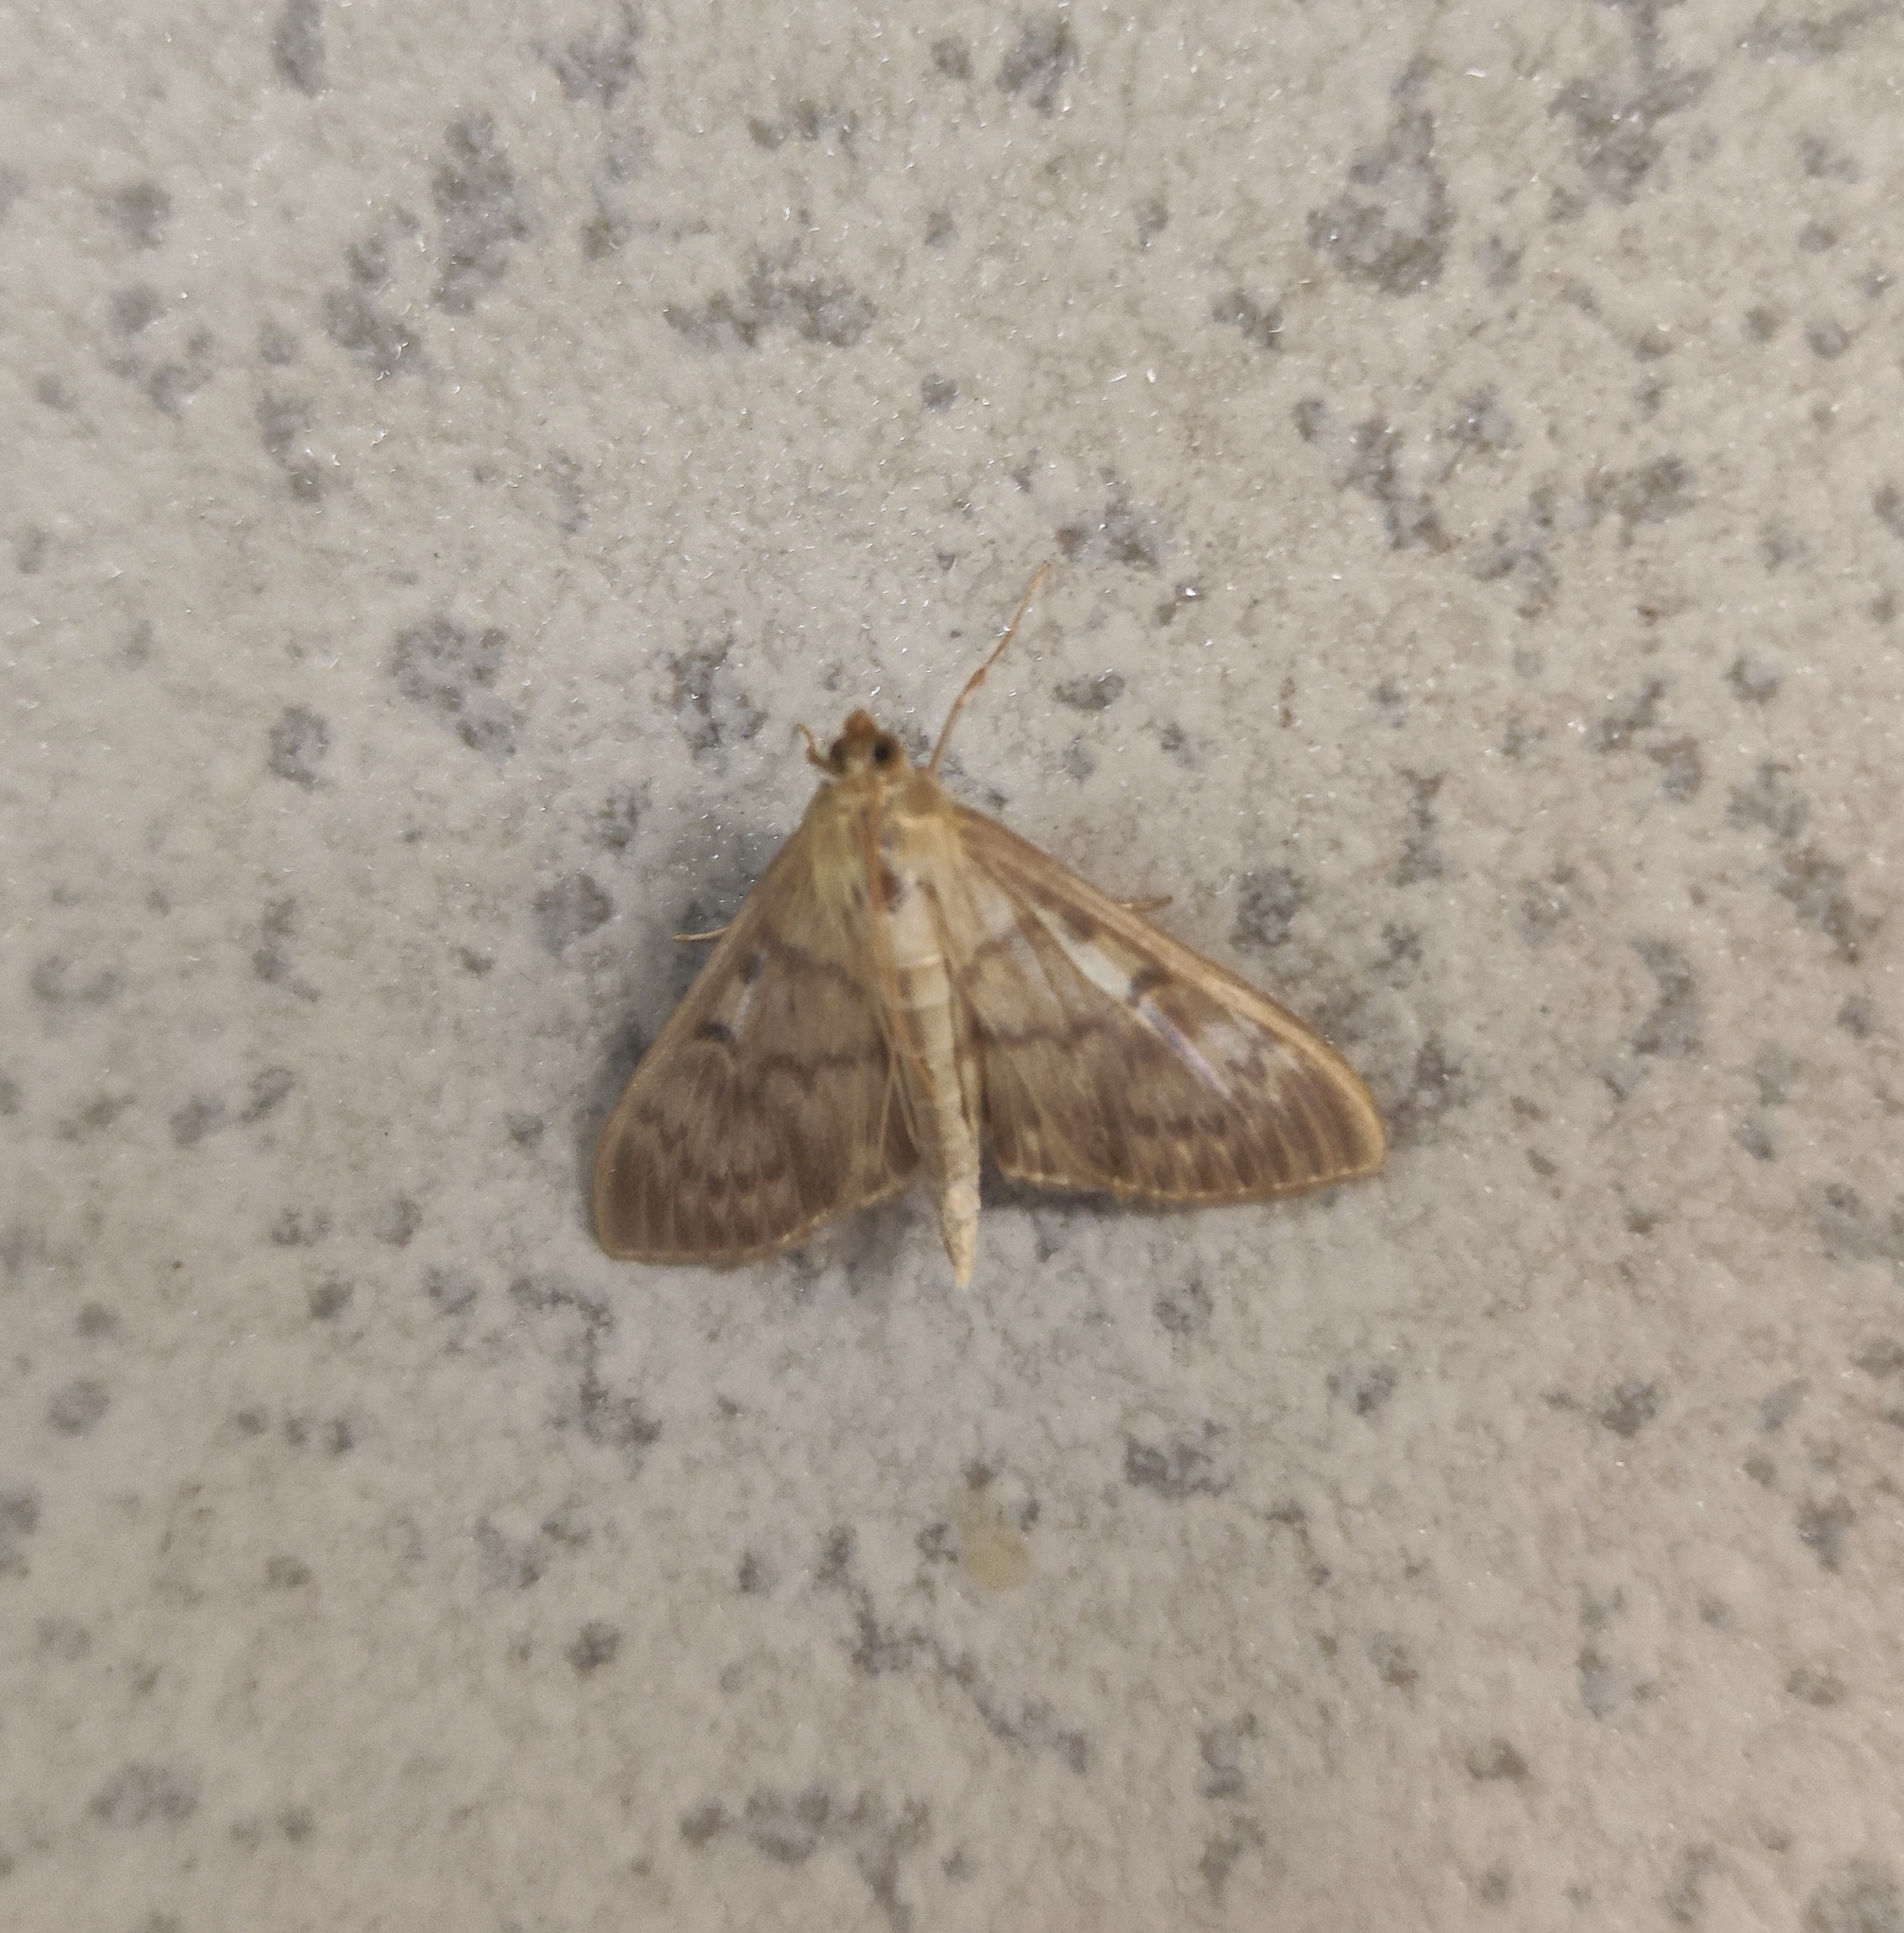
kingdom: Animalia
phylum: Arthropoda
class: Insecta
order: Lepidoptera
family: Crambidae
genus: Patania
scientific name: Patania ruralis
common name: Mother of pearl
